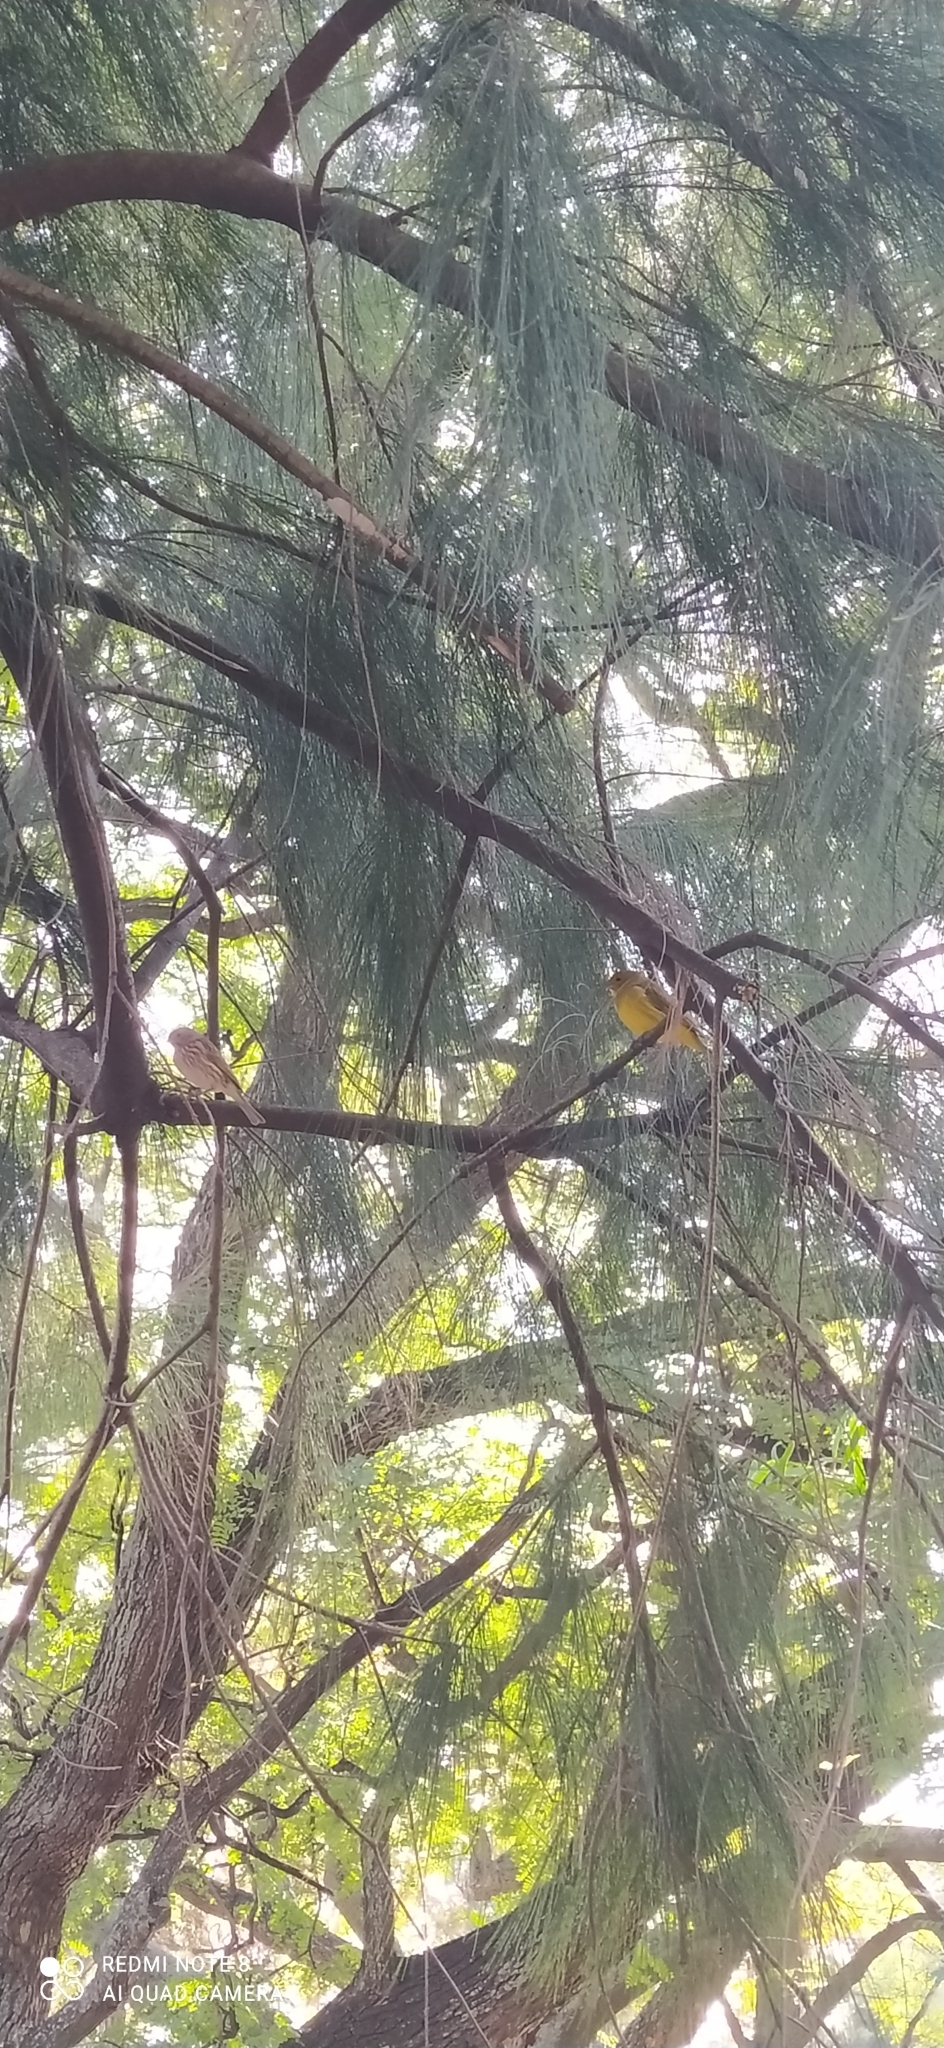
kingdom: Animalia
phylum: Chordata
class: Aves
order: Passeriformes
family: Thraupidae
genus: Sicalis
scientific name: Sicalis flaveola
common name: Saffron finch
